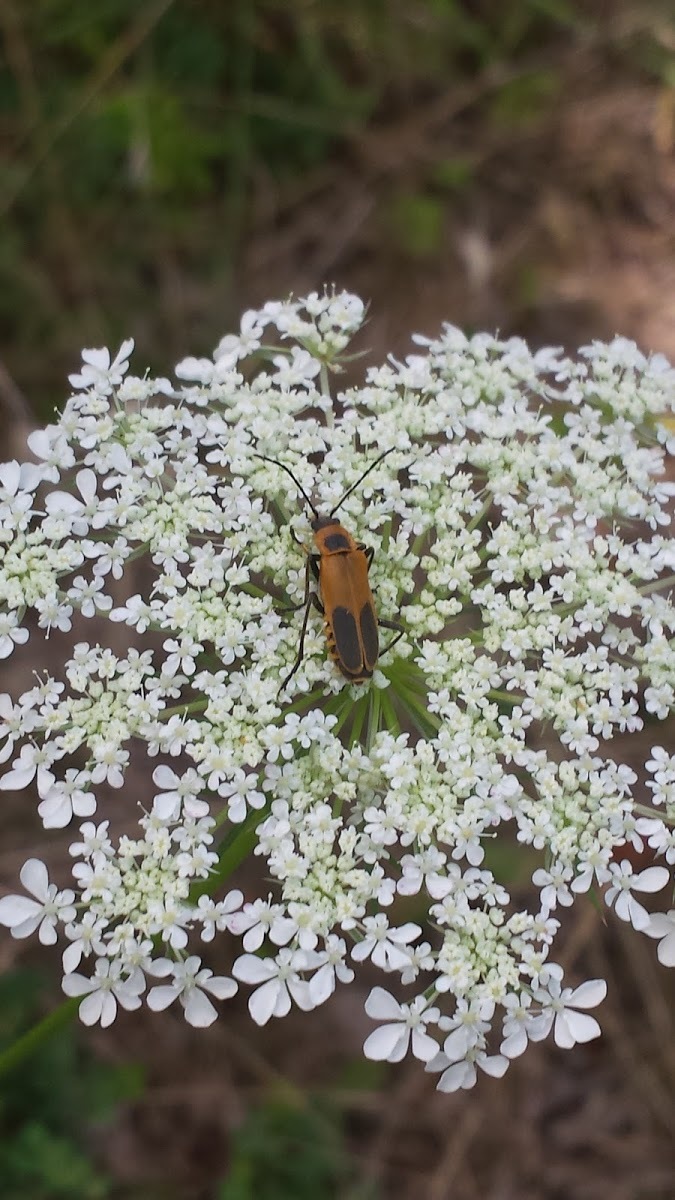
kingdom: Animalia
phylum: Arthropoda
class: Insecta
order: Coleoptera
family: Cantharidae
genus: Chauliognathus
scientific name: Chauliognathus pensylvanicus
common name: Goldenrod soldier beetle
